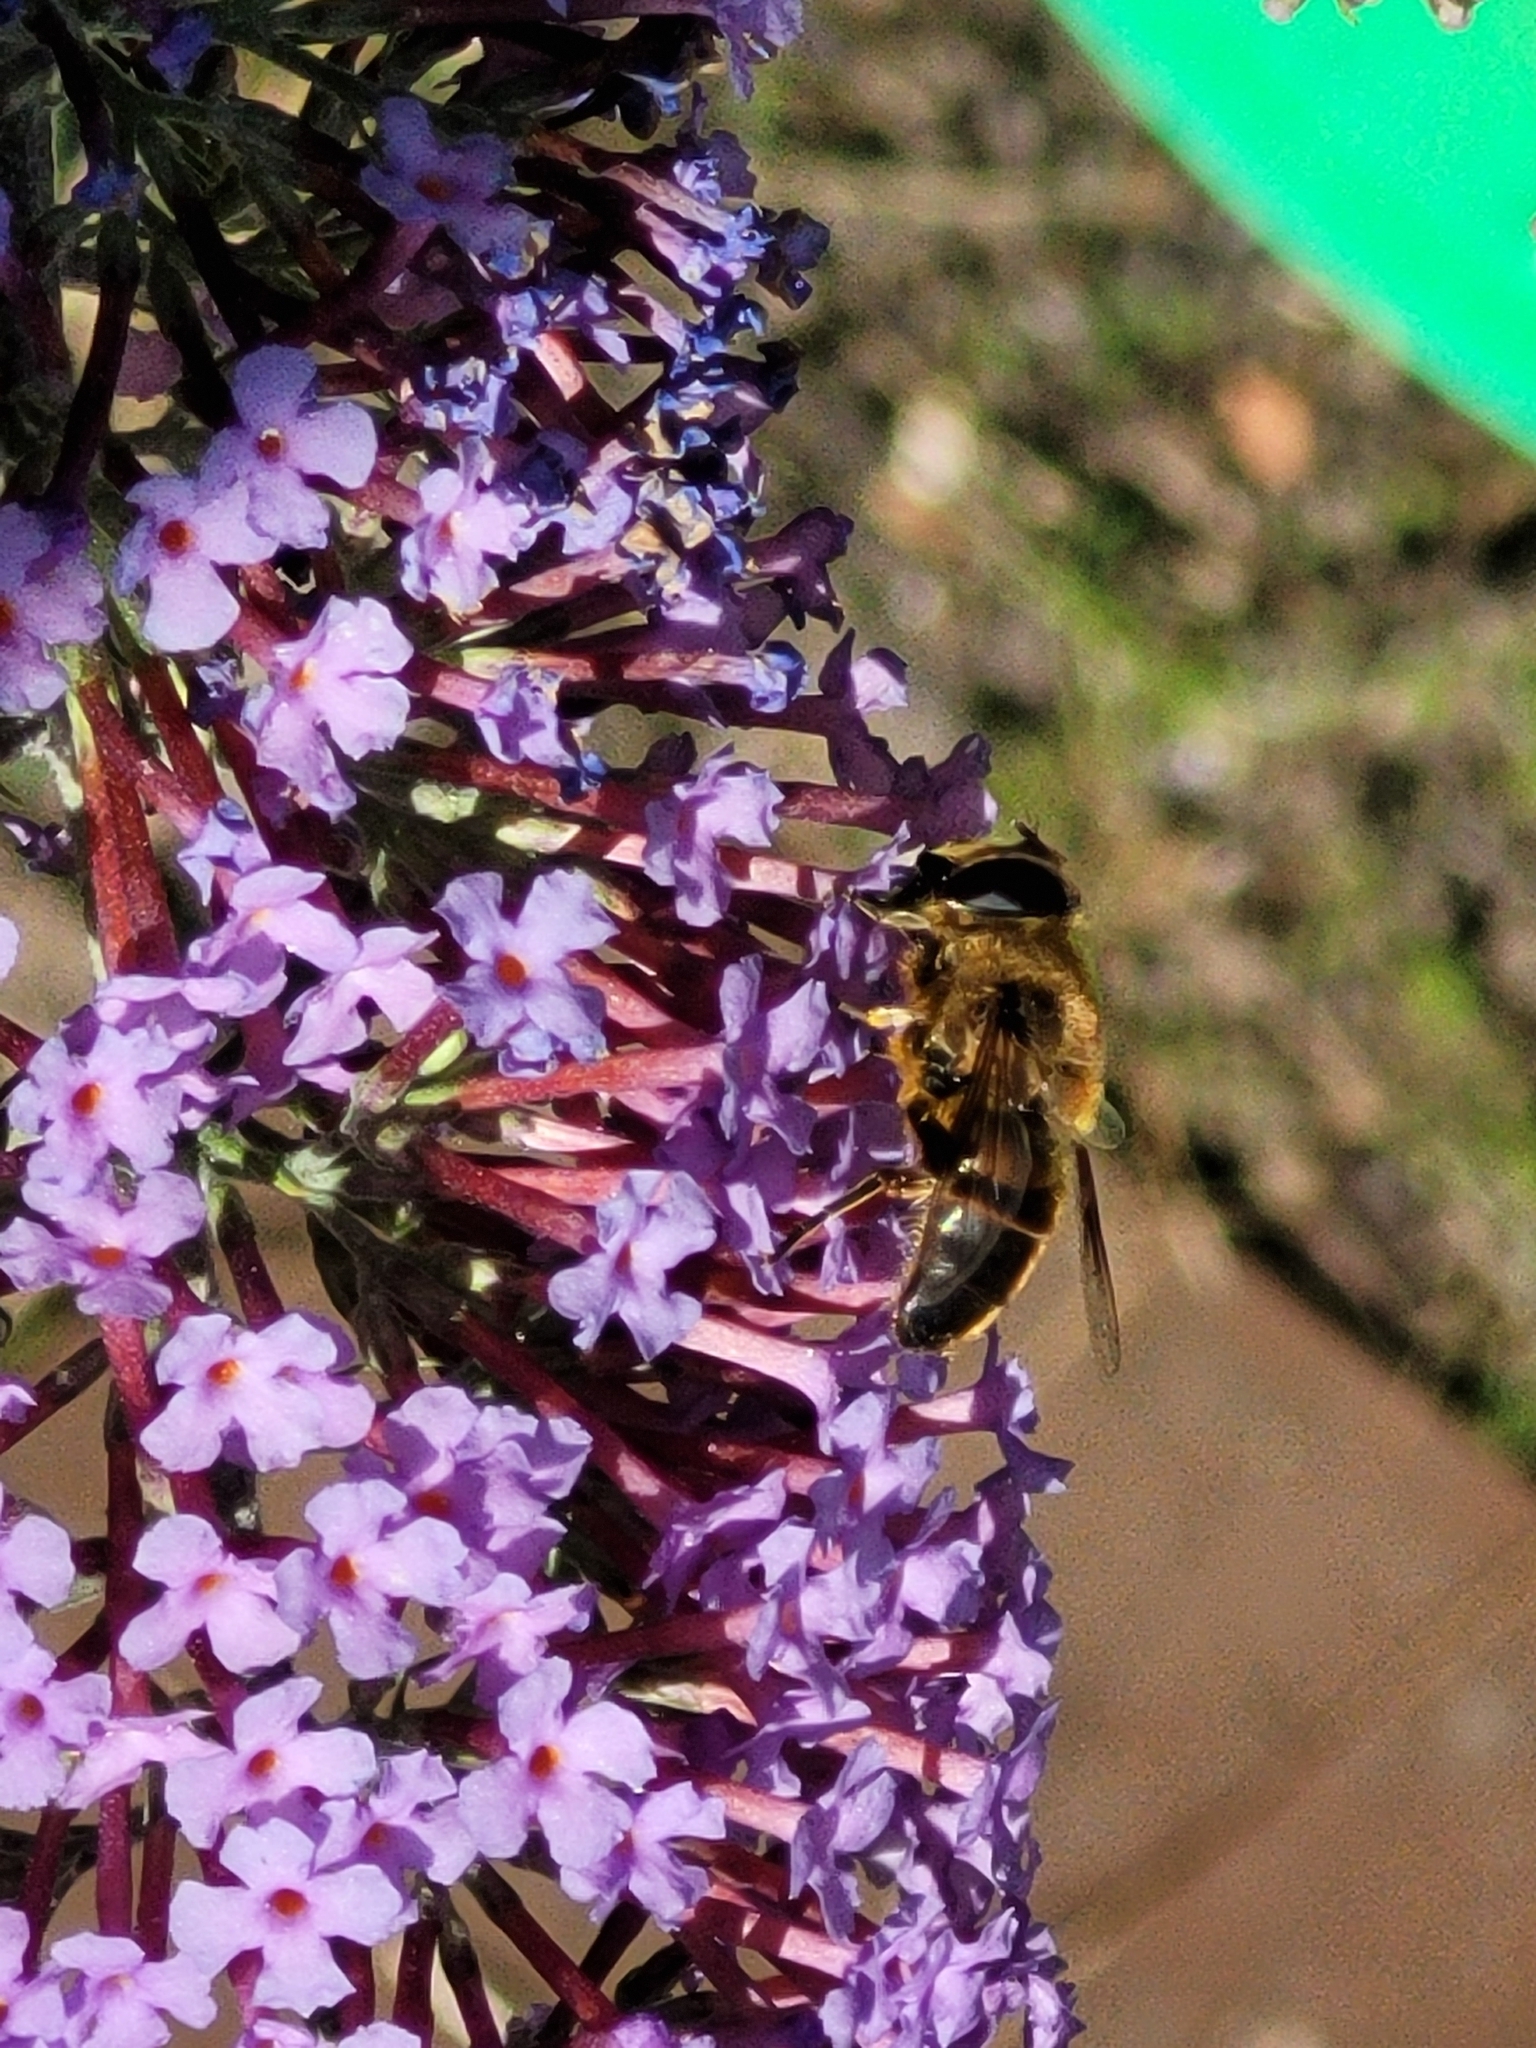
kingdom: Animalia
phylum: Arthropoda
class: Insecta
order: Diptera
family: Syrphidae
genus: Eristalis
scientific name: Eristalis tenax
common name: Drone fly
